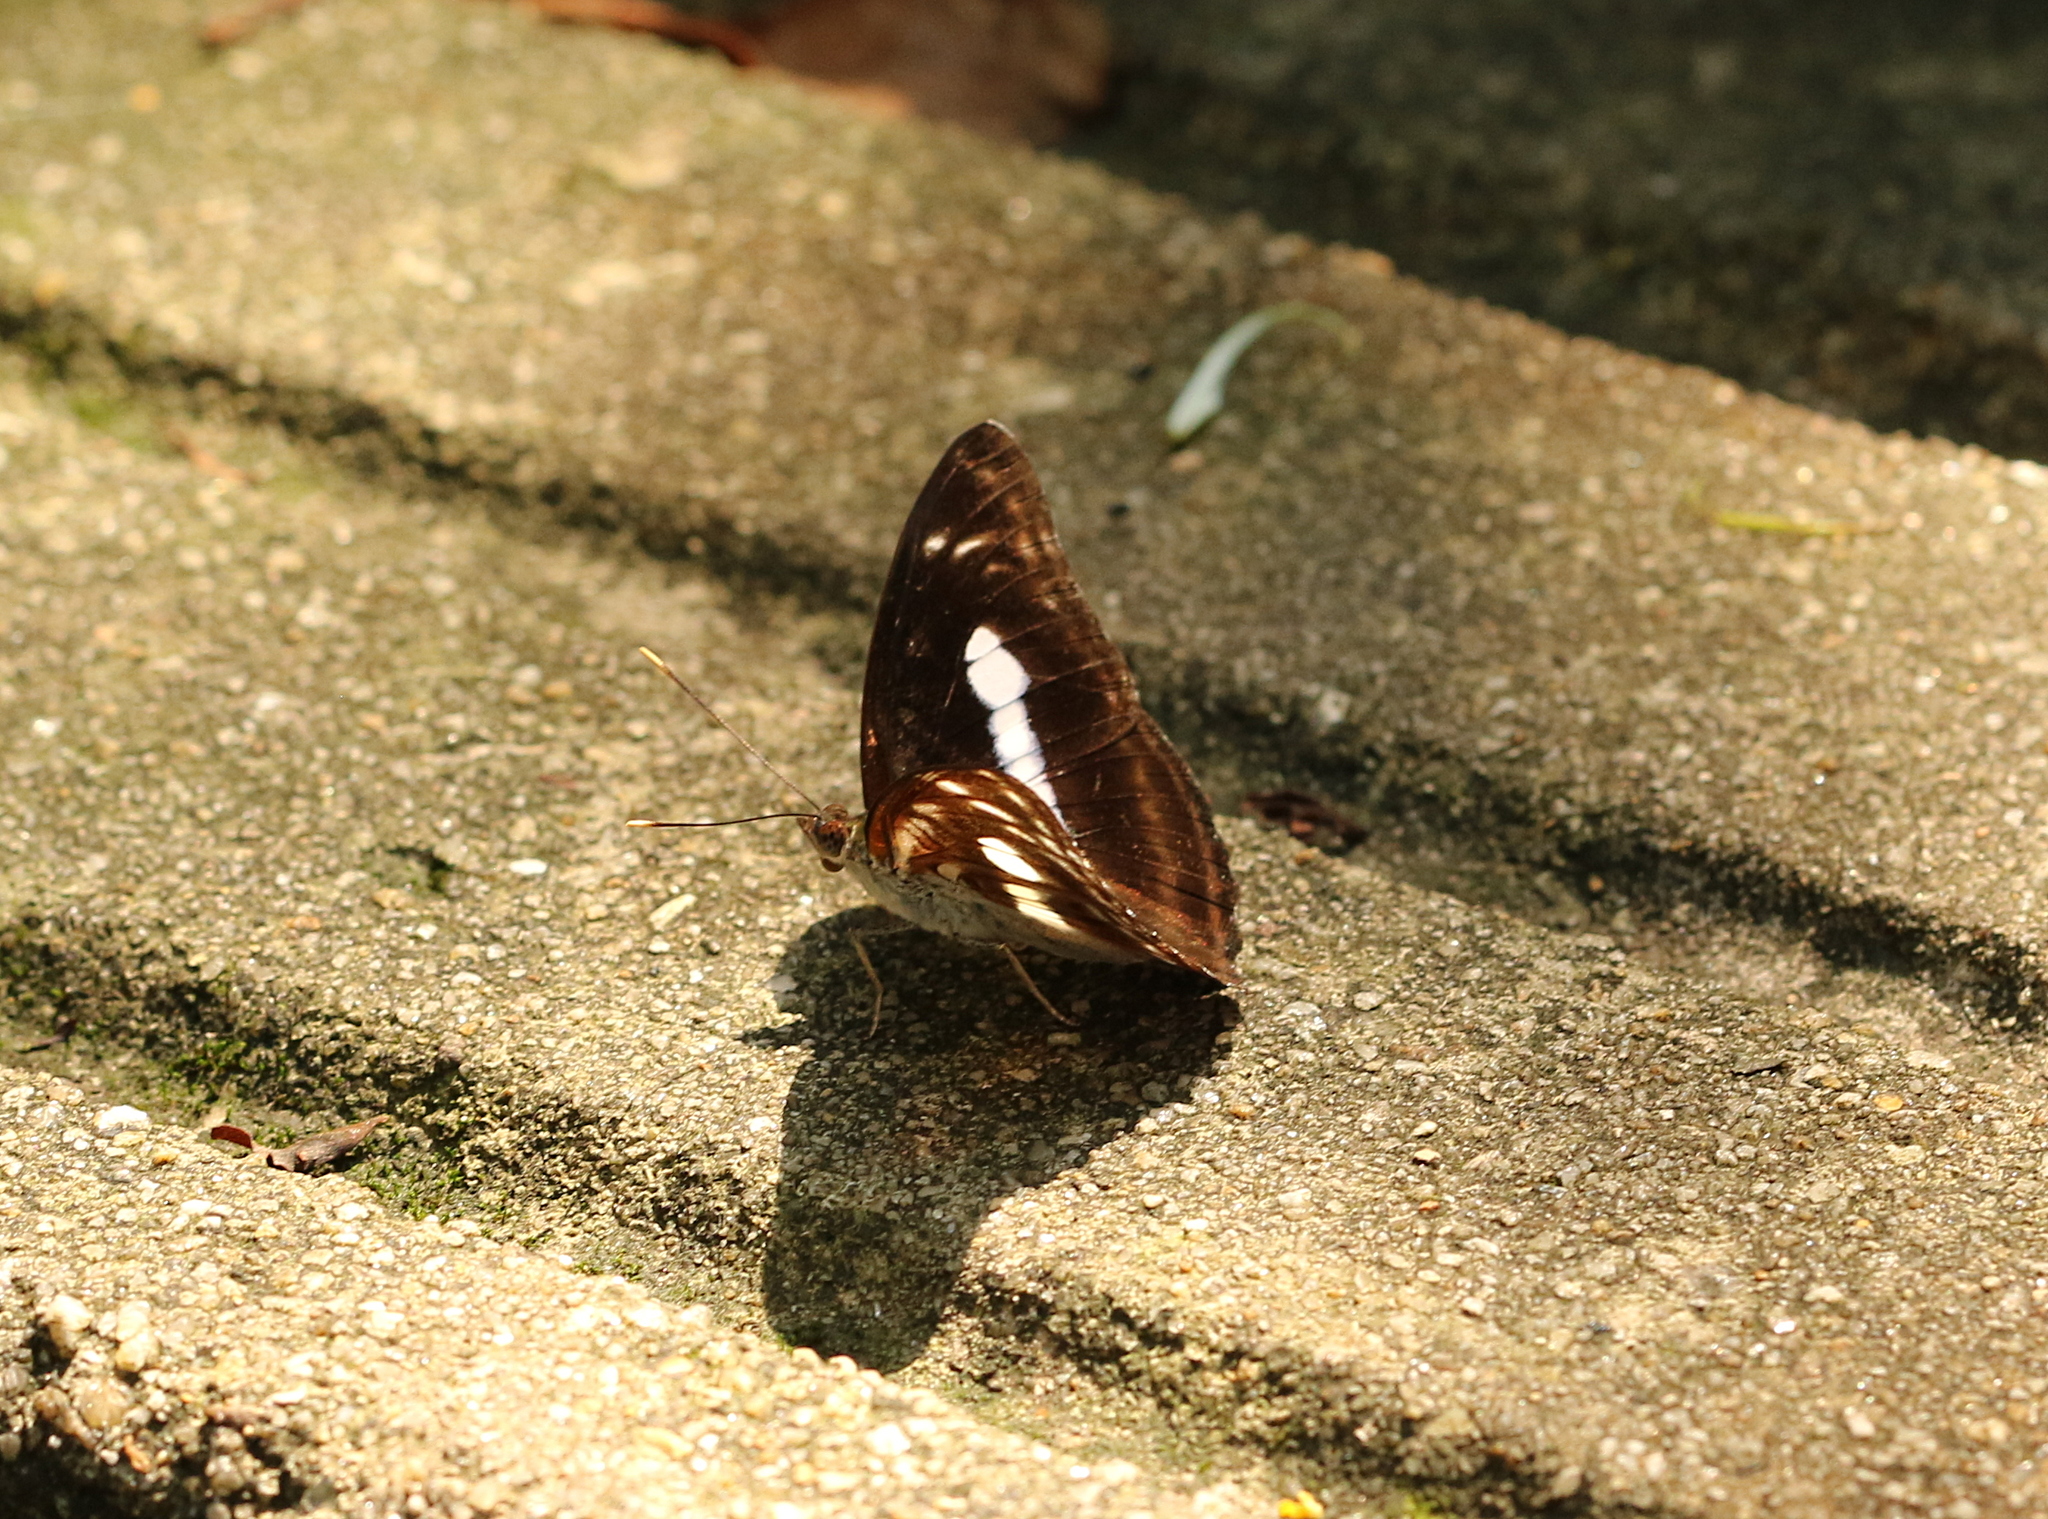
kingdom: Animalia
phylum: Arthropoda
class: Insecta
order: Lepidoptera
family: Nymphalidae
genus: Parathyma
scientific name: Parathyma selenophora
